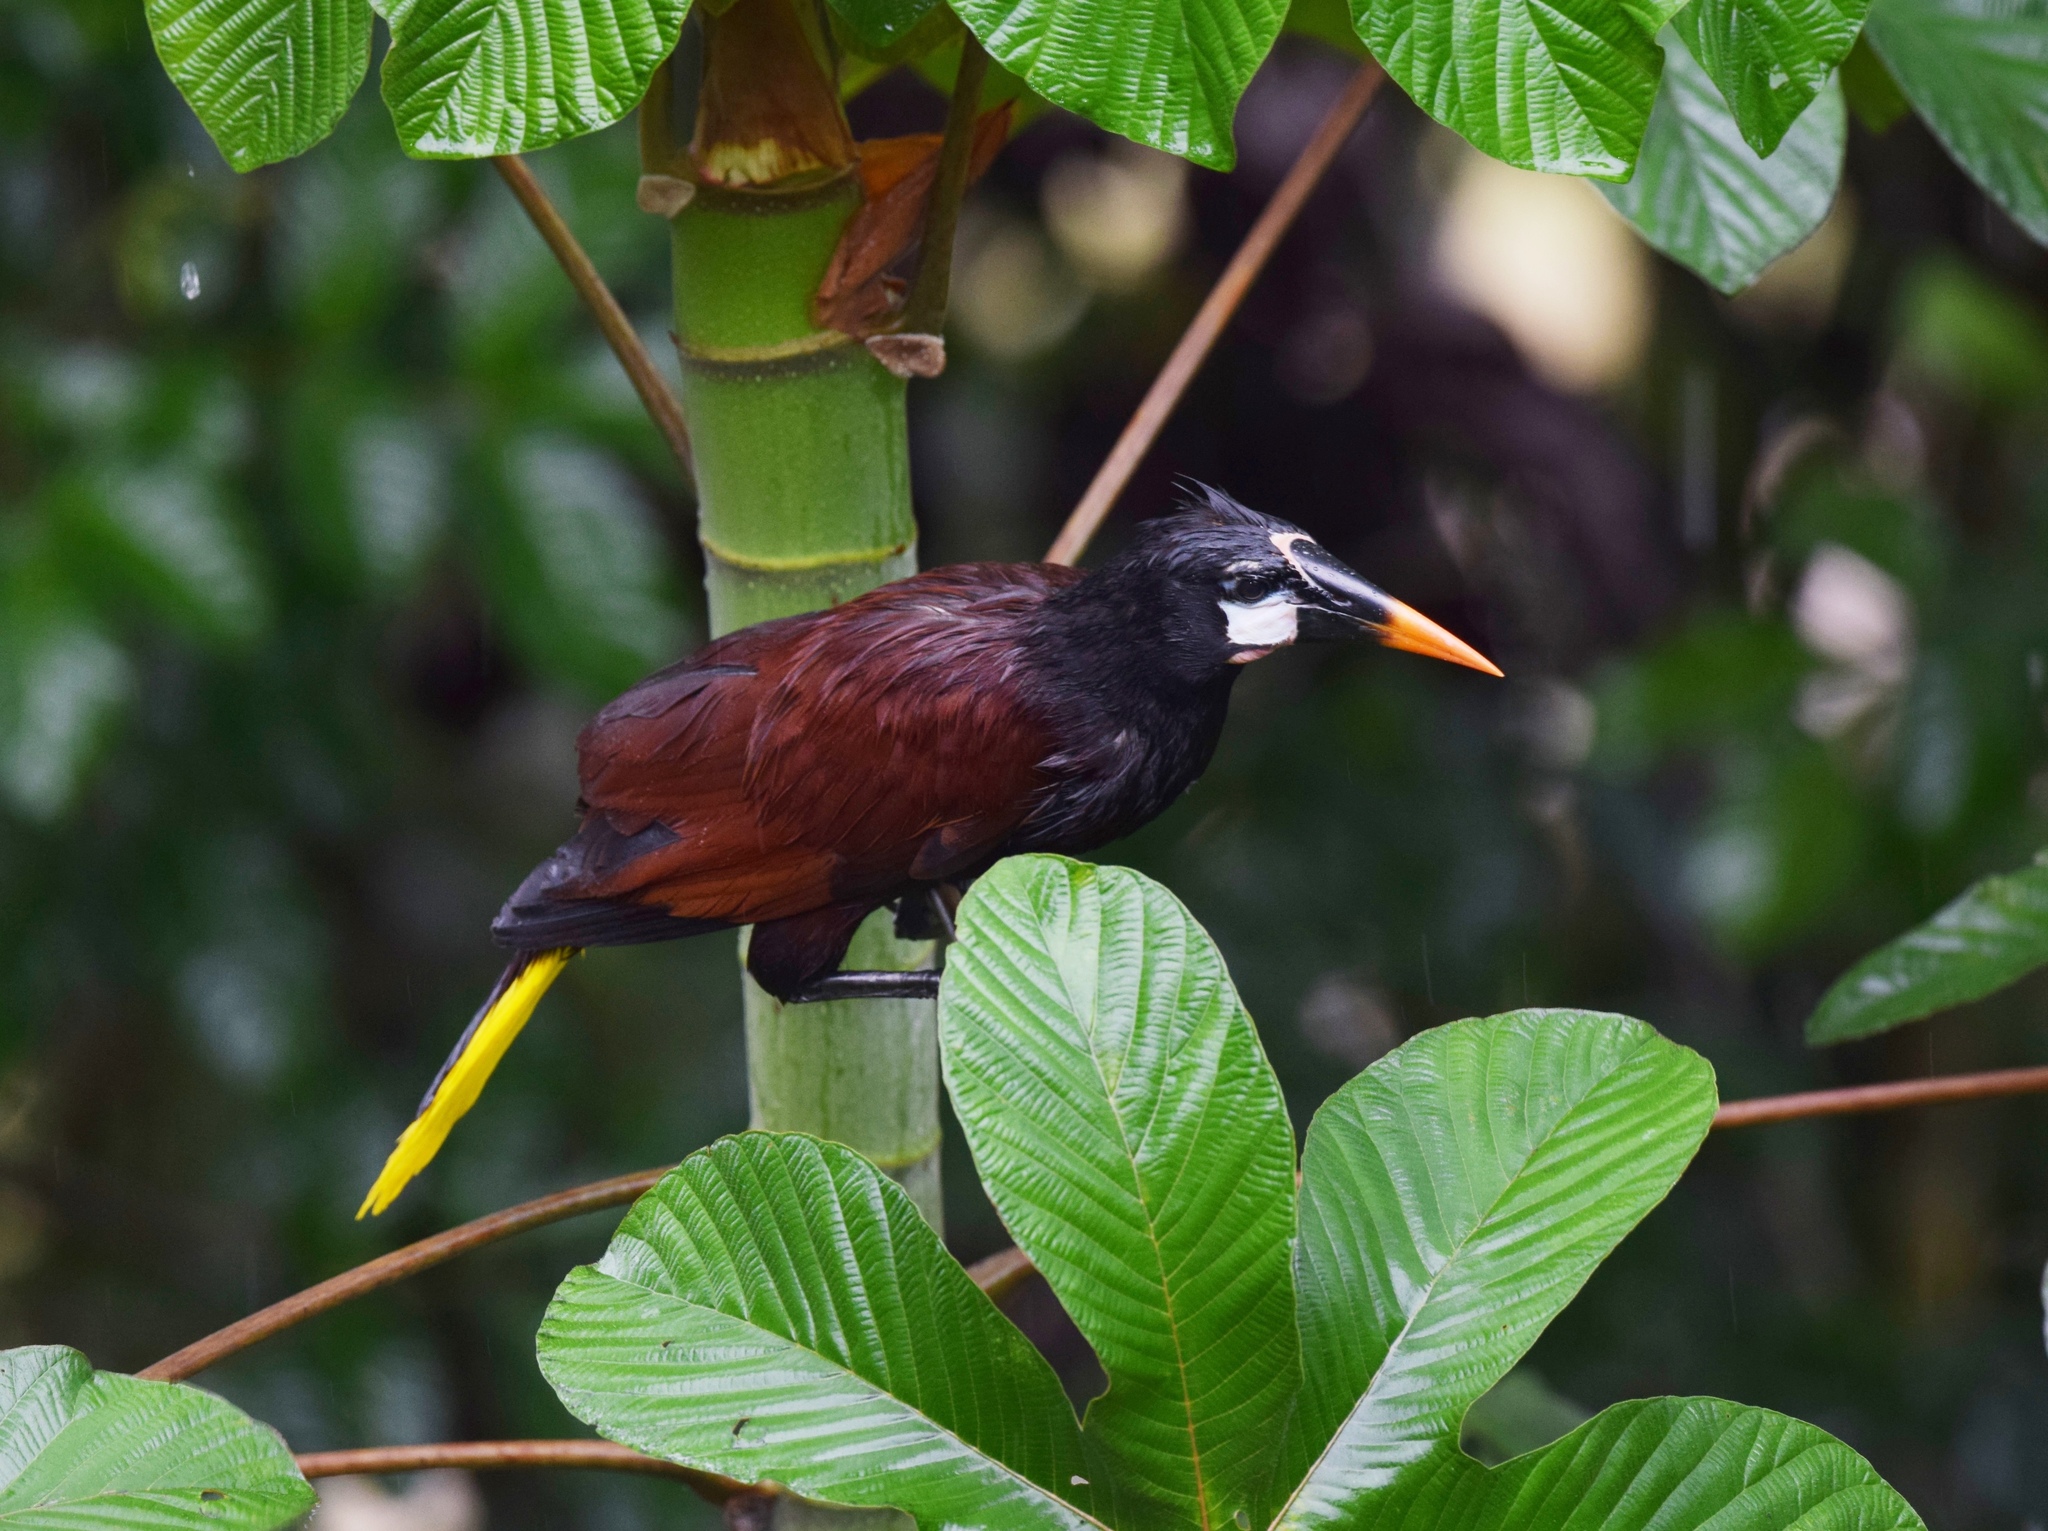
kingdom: Animalia
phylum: Chordata
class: Aves
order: Passeriformes
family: Icteridae
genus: Psarocolius
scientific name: Psarocolius montezuma
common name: Montezuma oropendola
